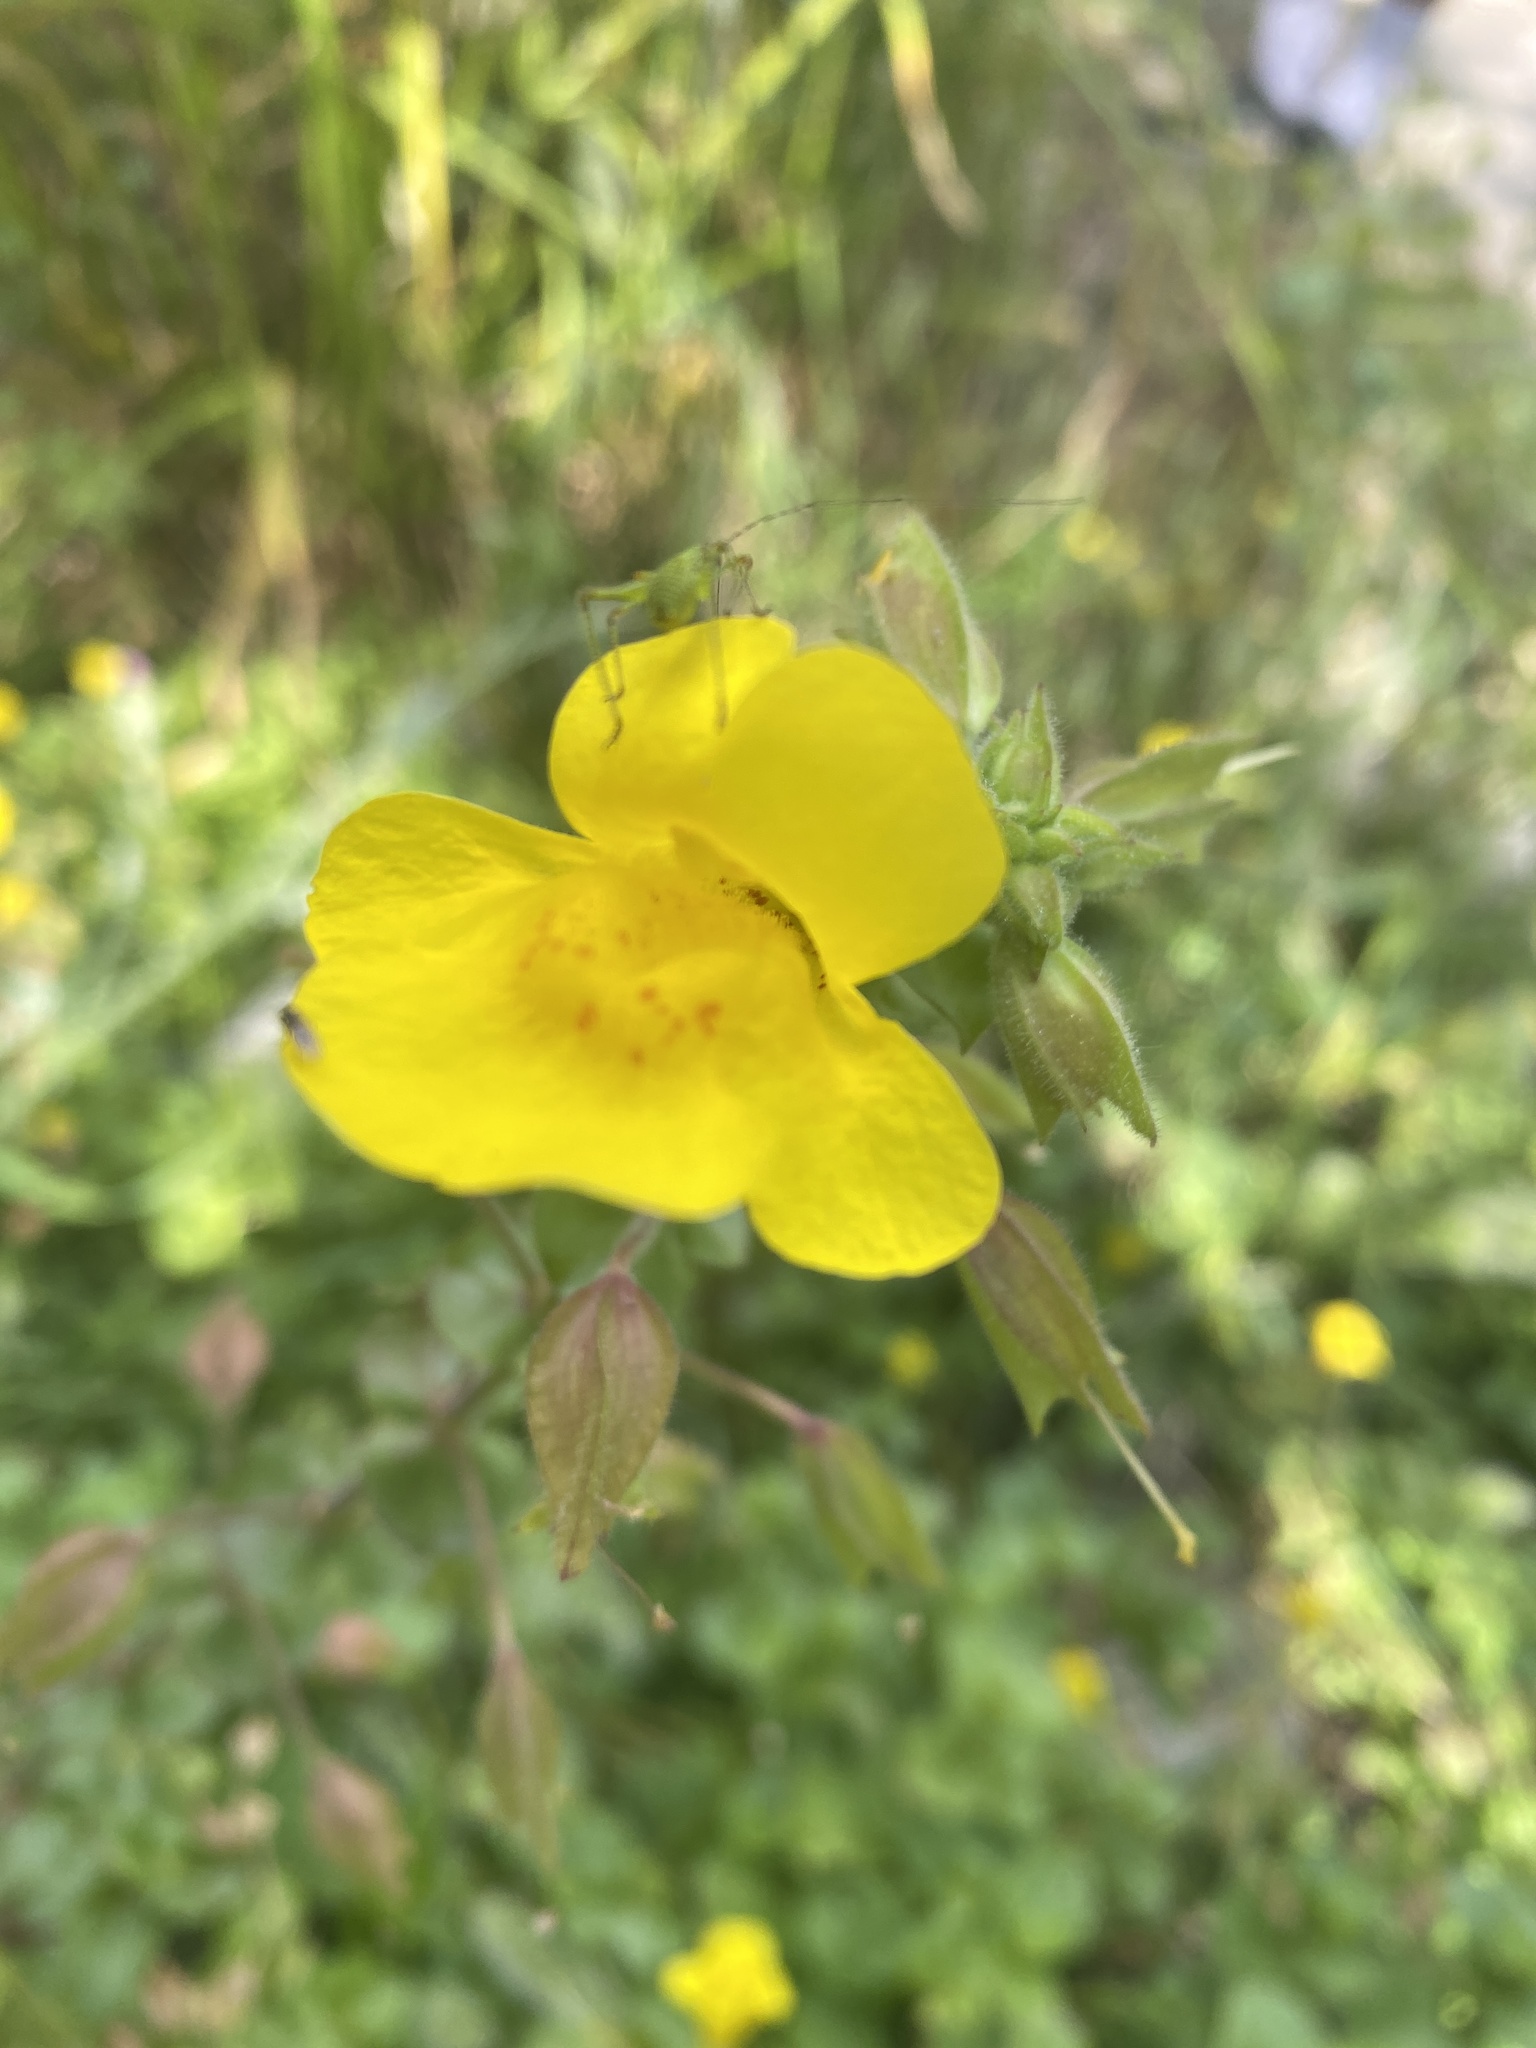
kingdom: Plantae
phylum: Tracheophyta
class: Magnoliopsida
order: Lamiales
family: Phrymaceae
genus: Erythranthe
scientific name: Erythranthe guttata
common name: Monkeyflower
